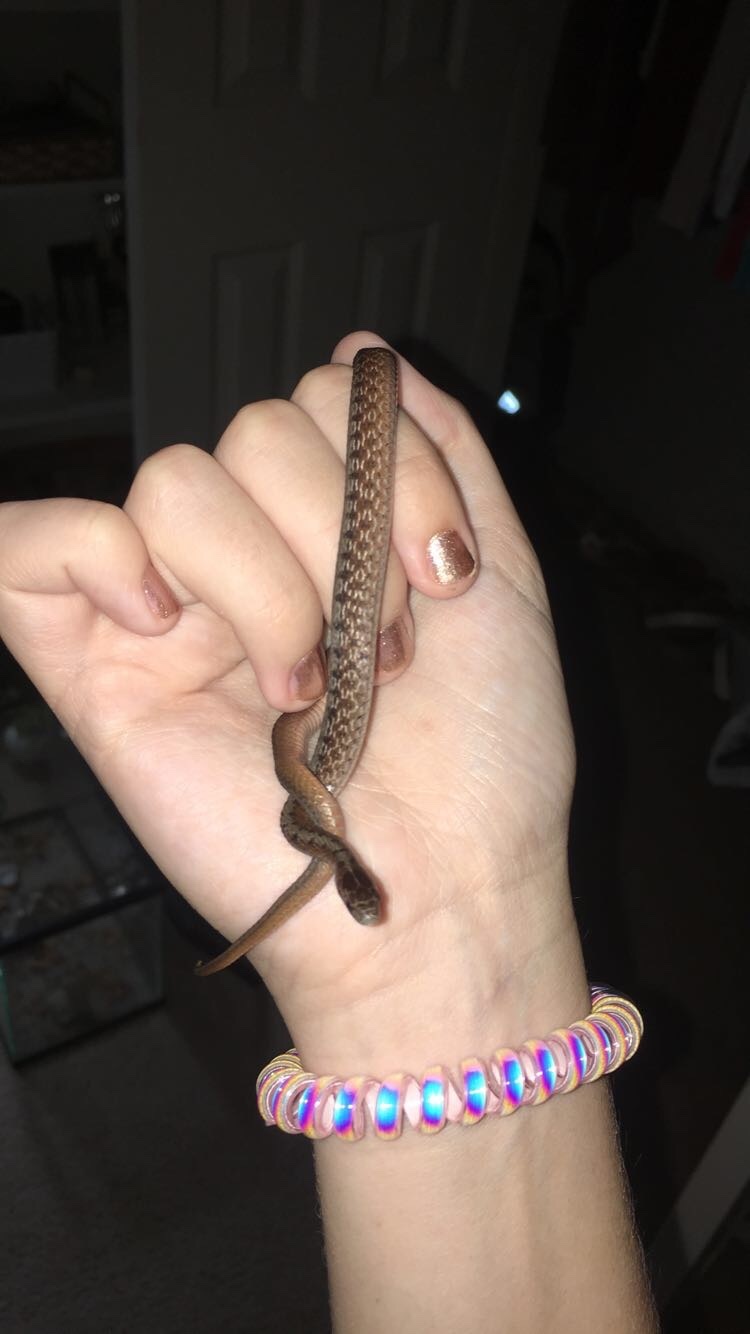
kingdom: Animalia
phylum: Chordata
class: Squamata
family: Colubridae
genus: Storeria
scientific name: Storeria dekayi
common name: (dekay’s) brown snake
